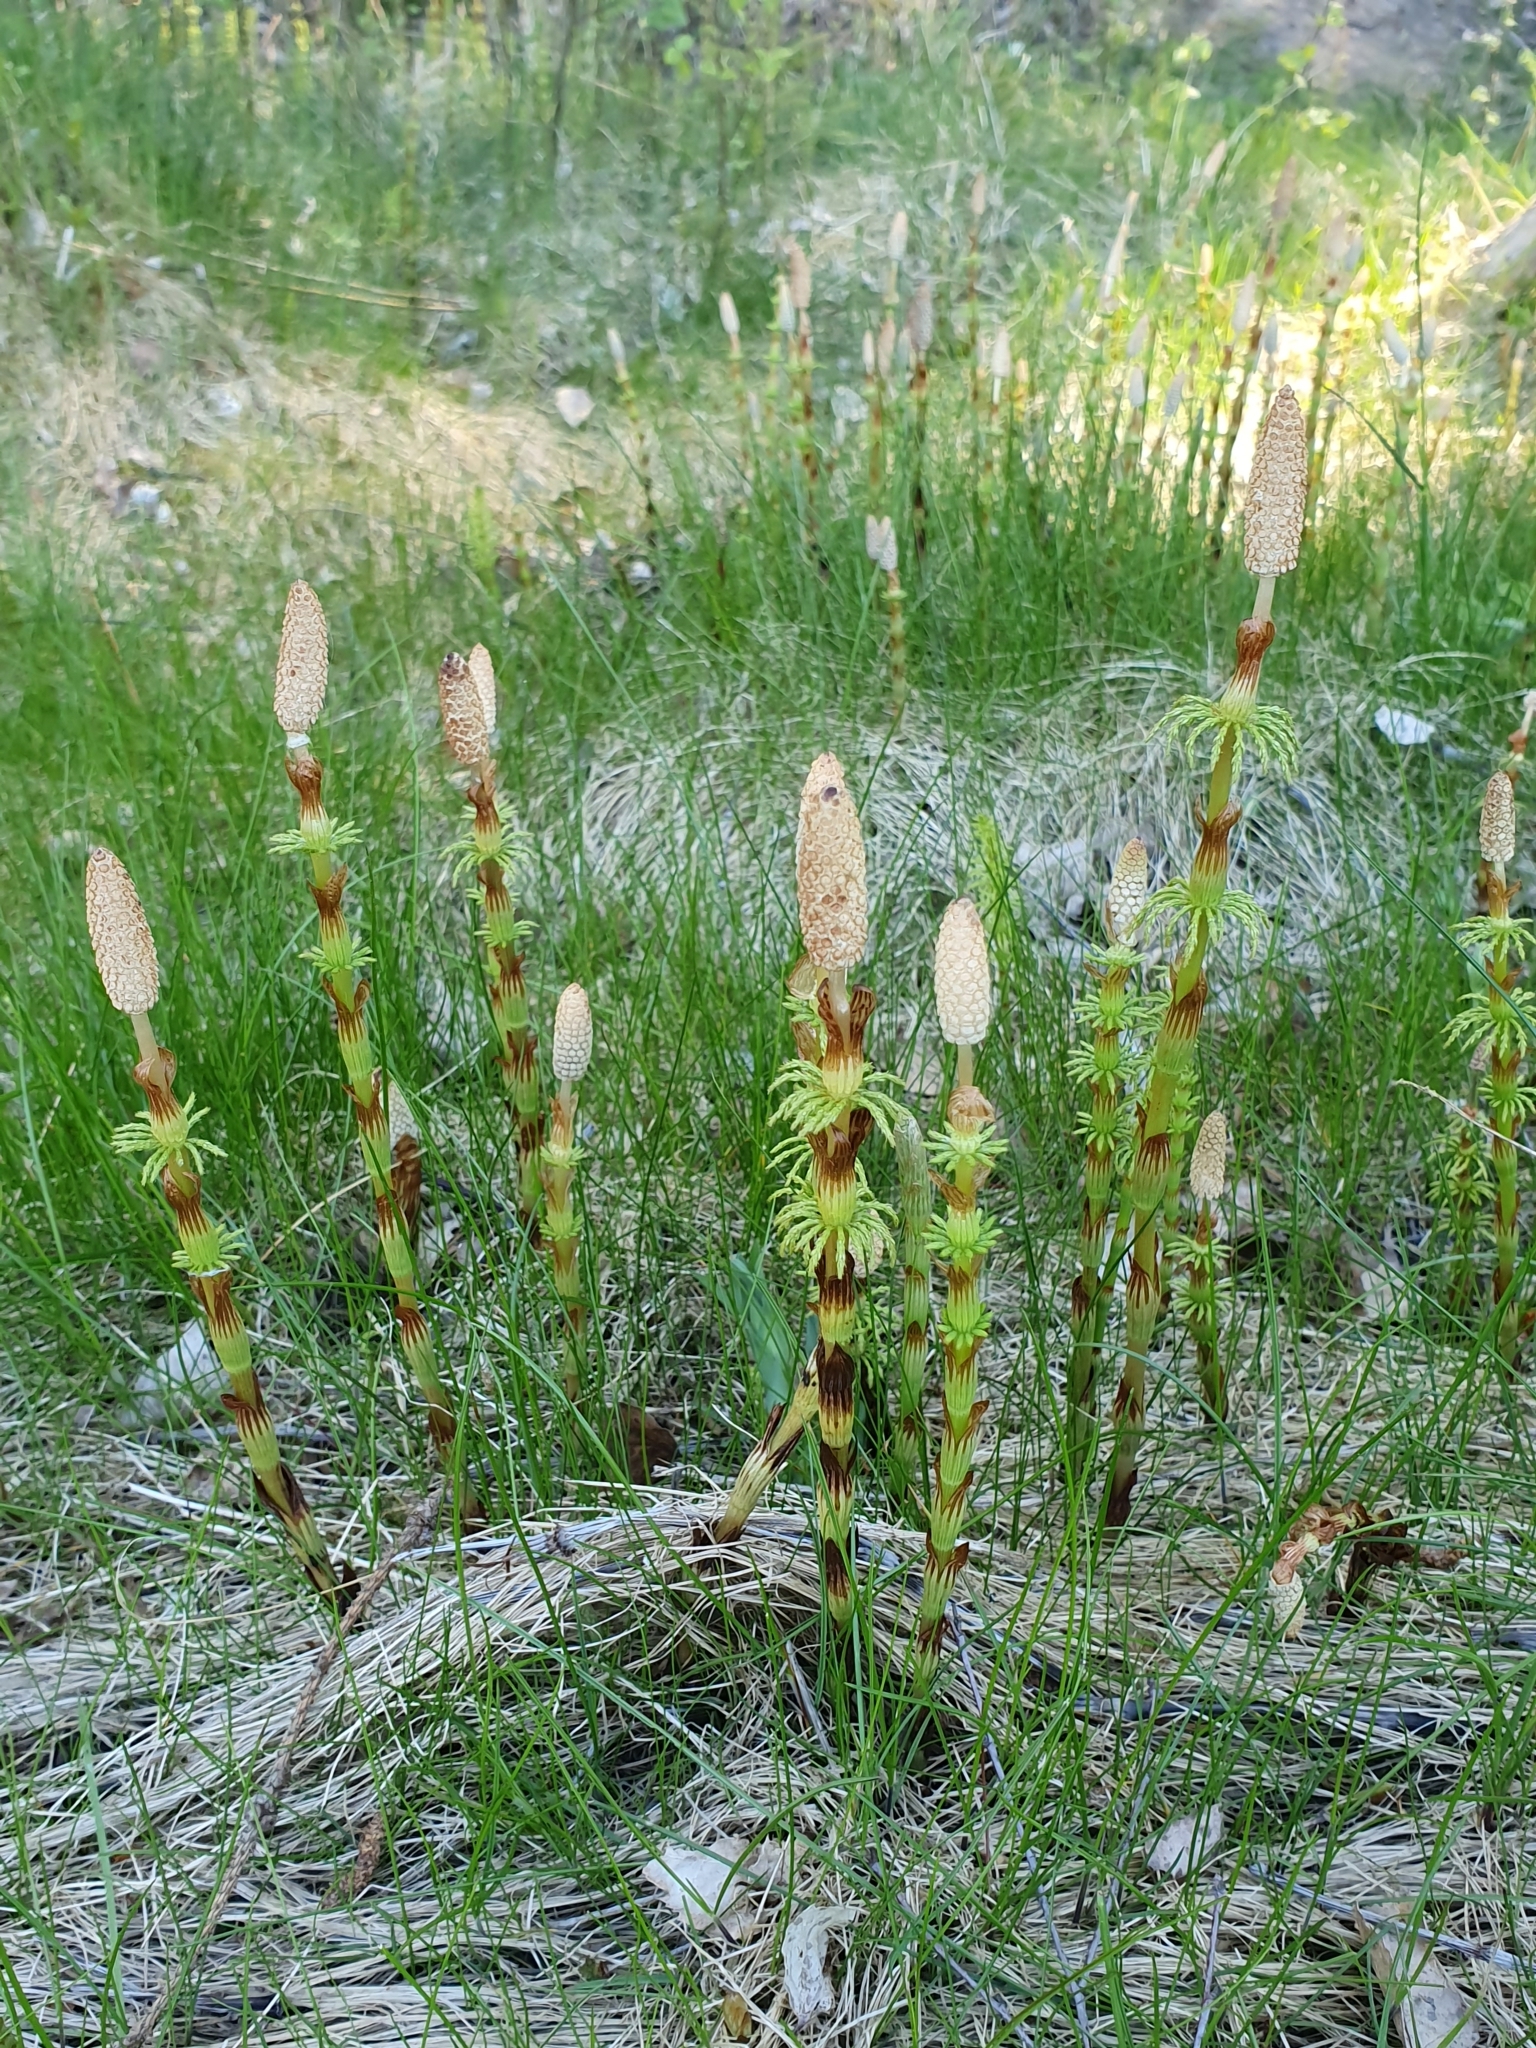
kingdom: Plantae
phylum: Tracheophyta
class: Polypodiopsida
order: Equisetales
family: Equisetaceae
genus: Equisetum
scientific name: Equisetum sylvaticum
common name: Wood horsetail
